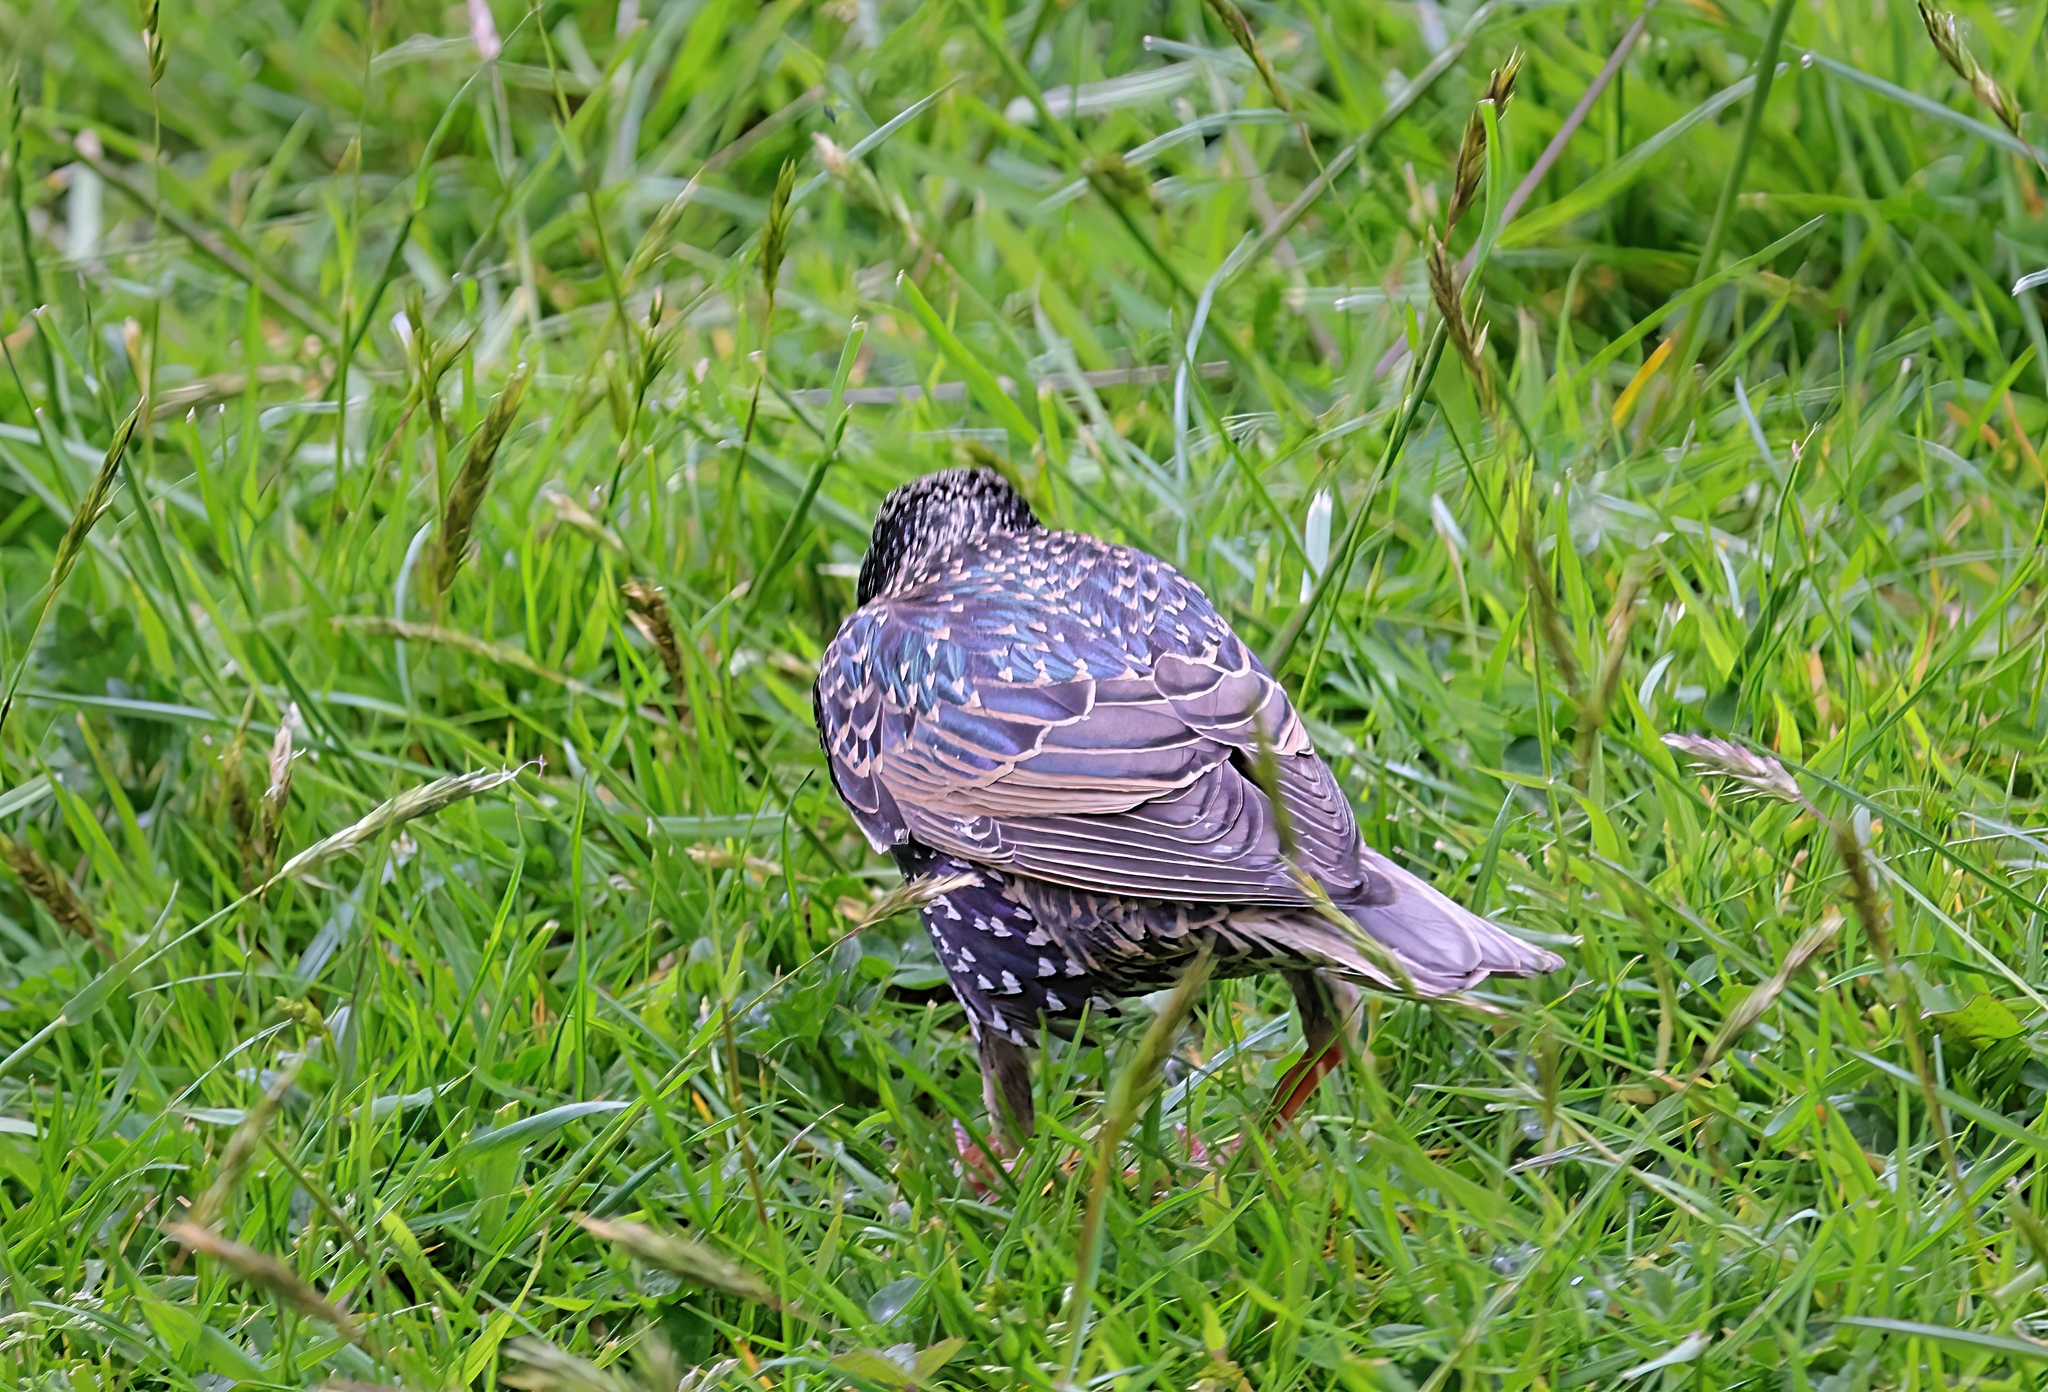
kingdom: Animalia
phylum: Chordata
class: Aves
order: Passeriformes
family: Sturnidae
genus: Sturnus
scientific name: Sturnus vulgaris
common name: Common starling
